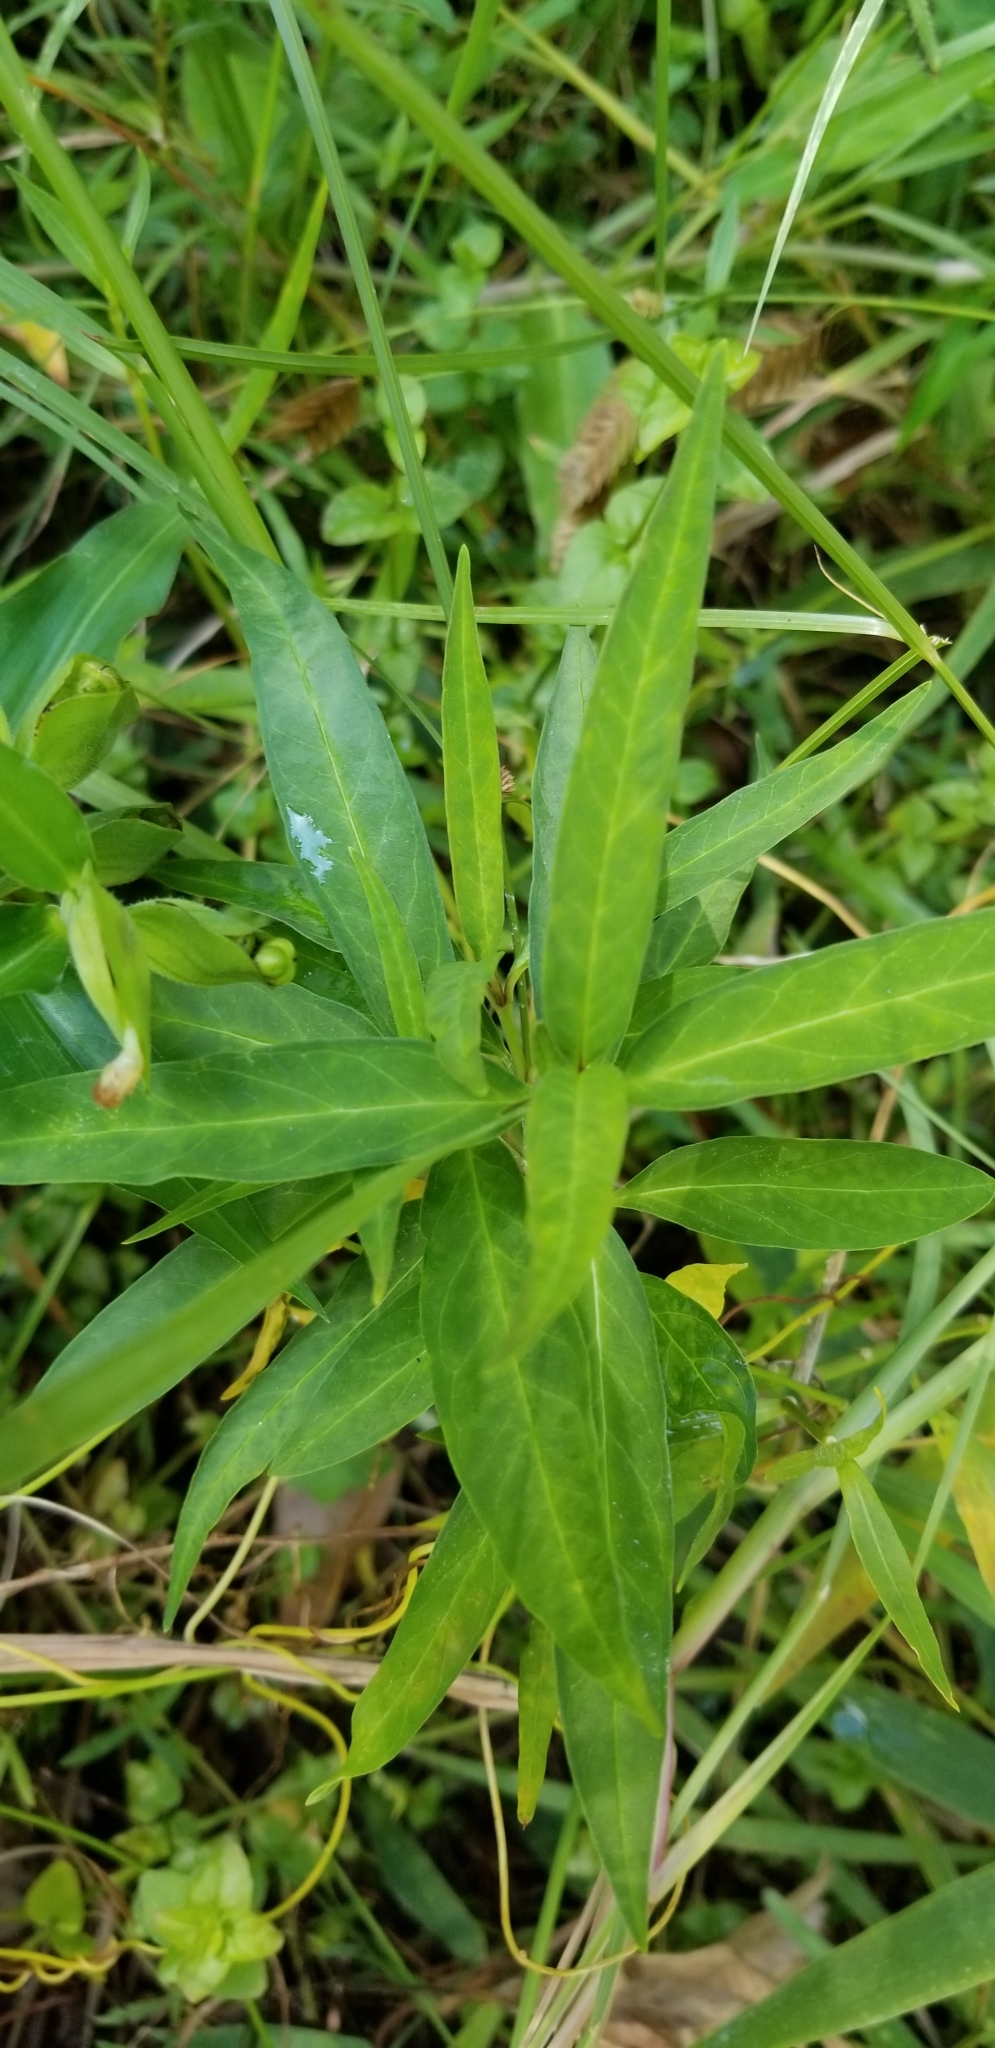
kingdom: Plantae
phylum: Tracheophyta
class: Magnoliopsida
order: Gentianales
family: Apocynaceae
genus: Asclepias
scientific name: Asclepias perennis
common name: Smooth-seed milkweed
